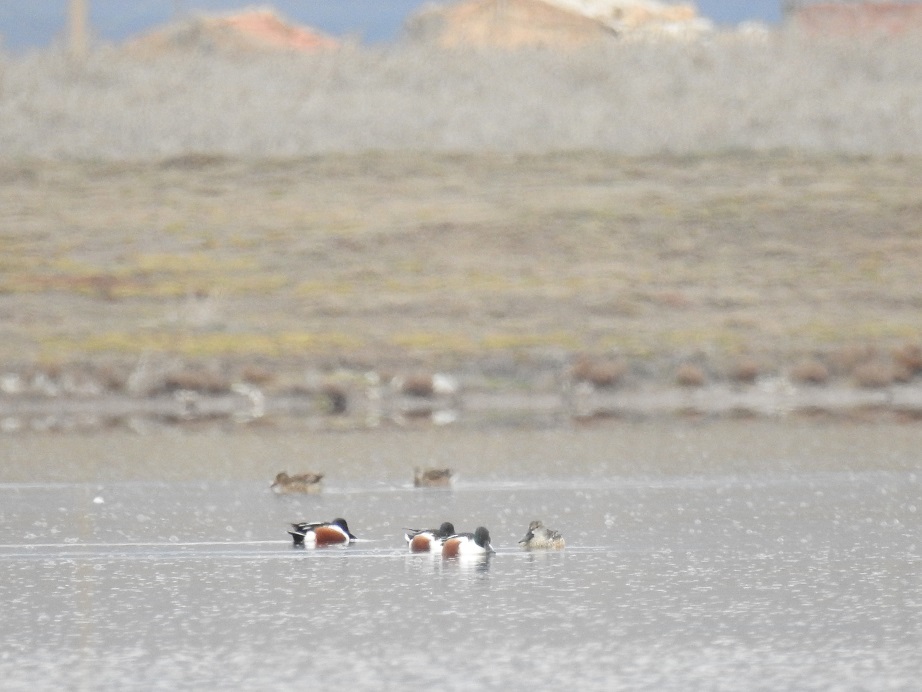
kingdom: Animalia
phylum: Chordata
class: Aves
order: Anseriformes
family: Anatidae
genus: Spatula
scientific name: Spatula clypeata
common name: Northern shoveler
